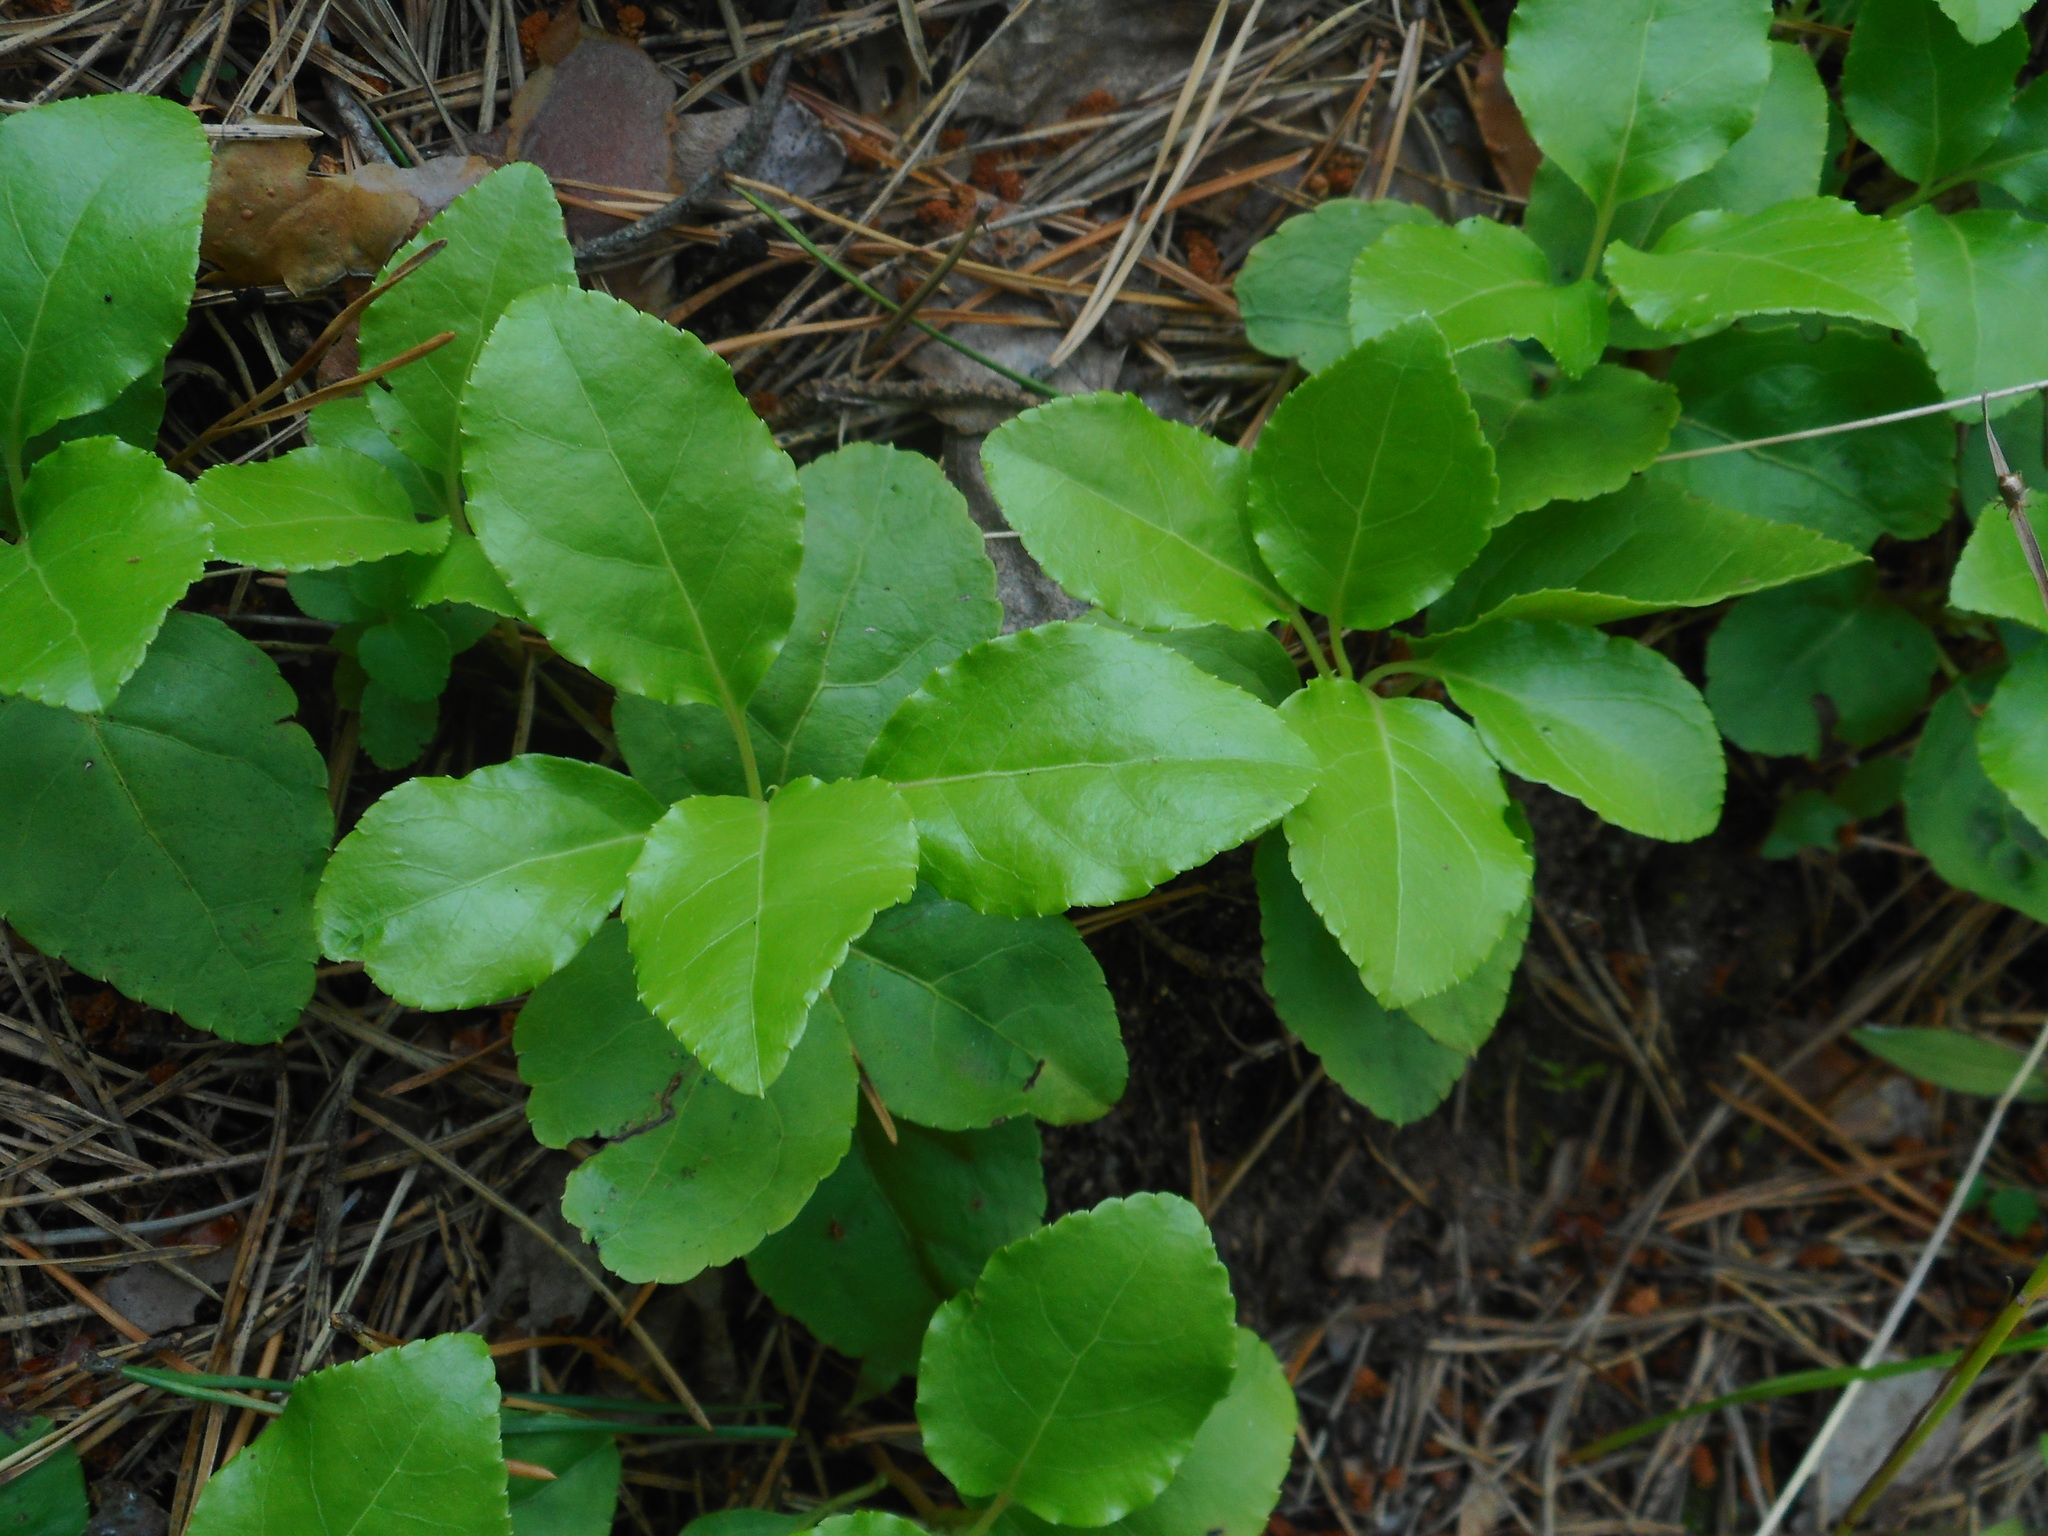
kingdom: Plantae
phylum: Tracheophyta
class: Magnoliopsida
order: Ericales
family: Ericaceae
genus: Orthilia
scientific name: Orthilia secunda
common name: One-sided orthilia
